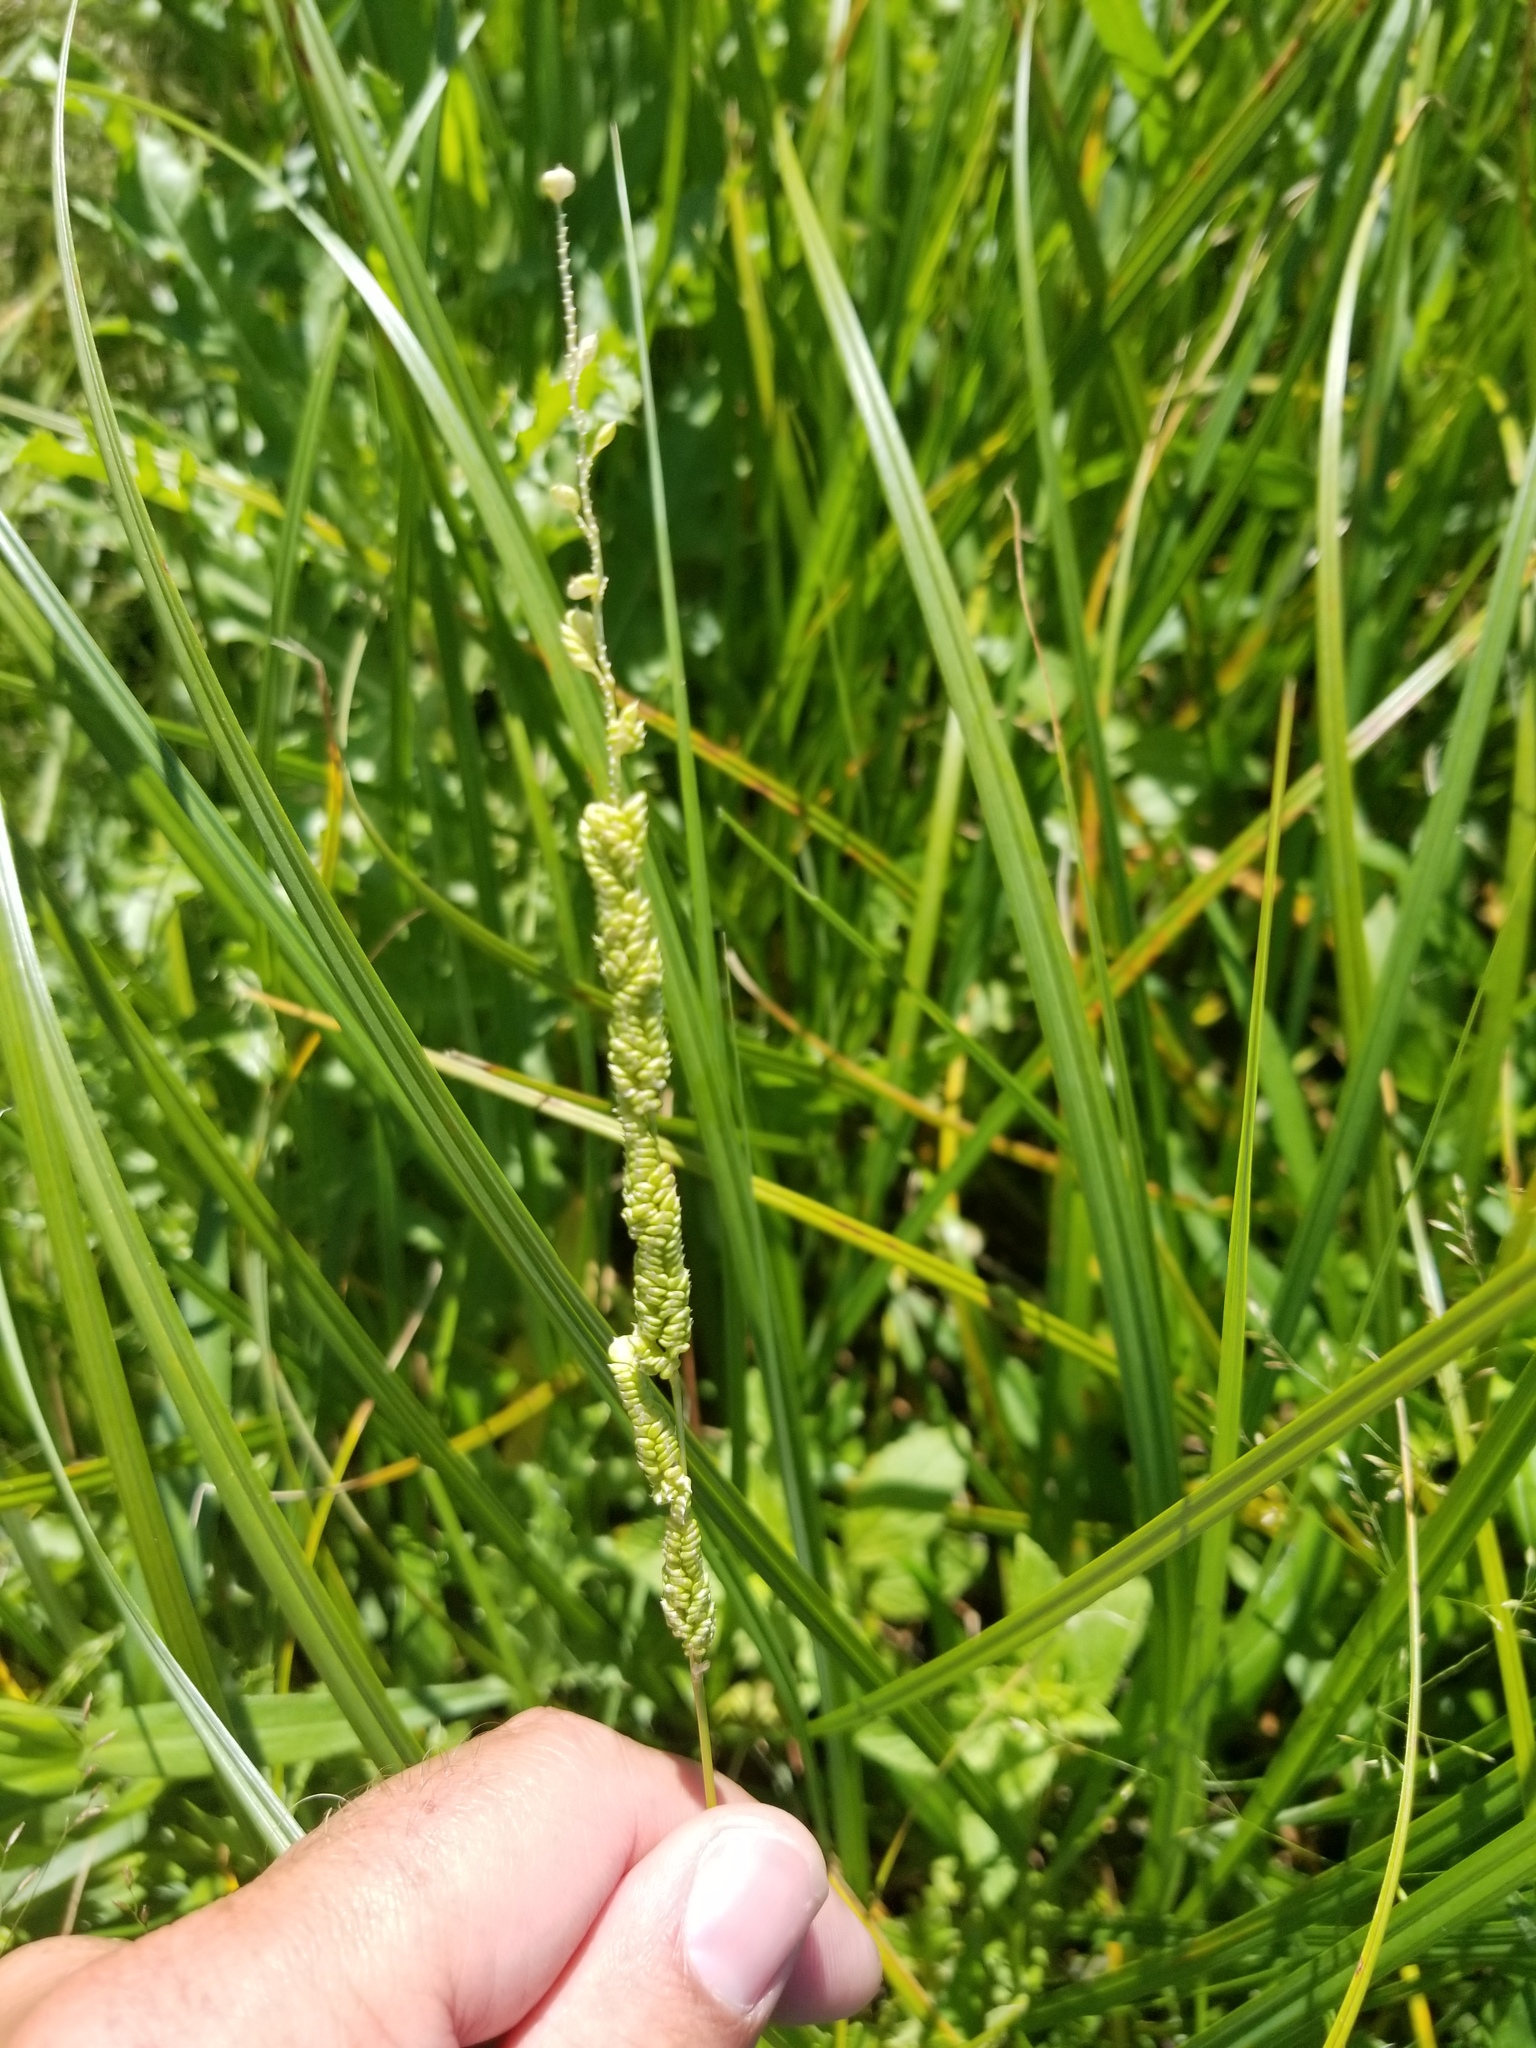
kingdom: Plantae
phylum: Tracheophyta
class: Liliopsida
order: Poales
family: Poaceae
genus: Beckmannia
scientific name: Beckmannia syzigachne
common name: American slough-grass
